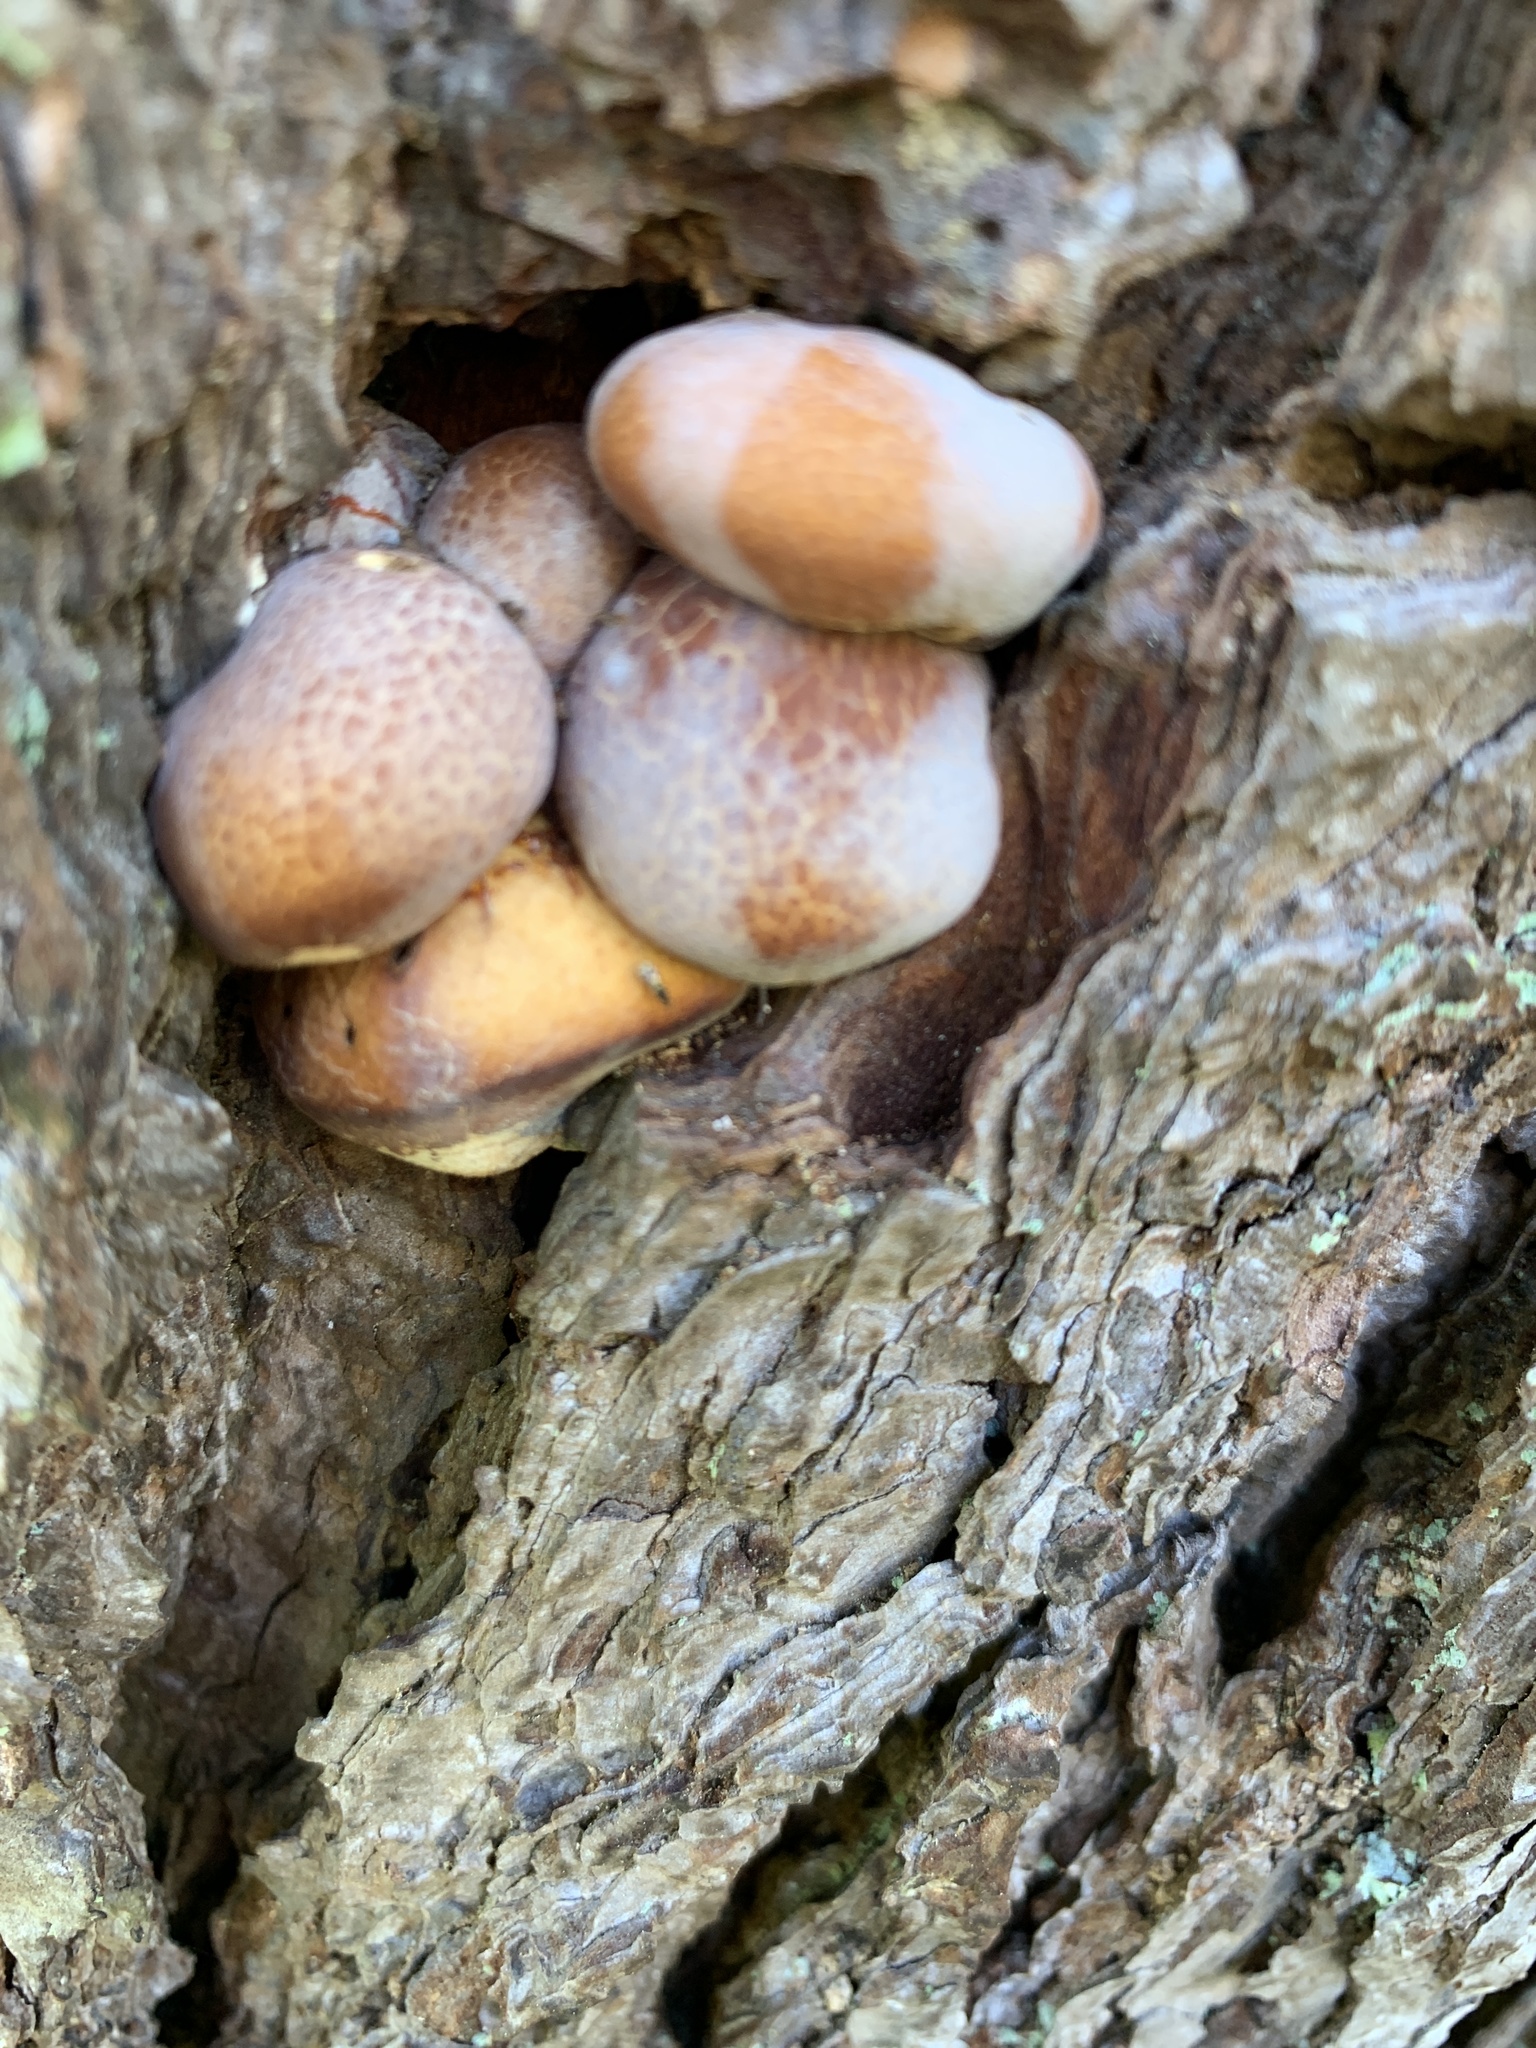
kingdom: Fungi
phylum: Basidiomycota
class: Agaricomycetes
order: Polyporales
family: Polyporaceae
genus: Cryptoporus
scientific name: Cryptoporus volvatus
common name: Veiled polypore
